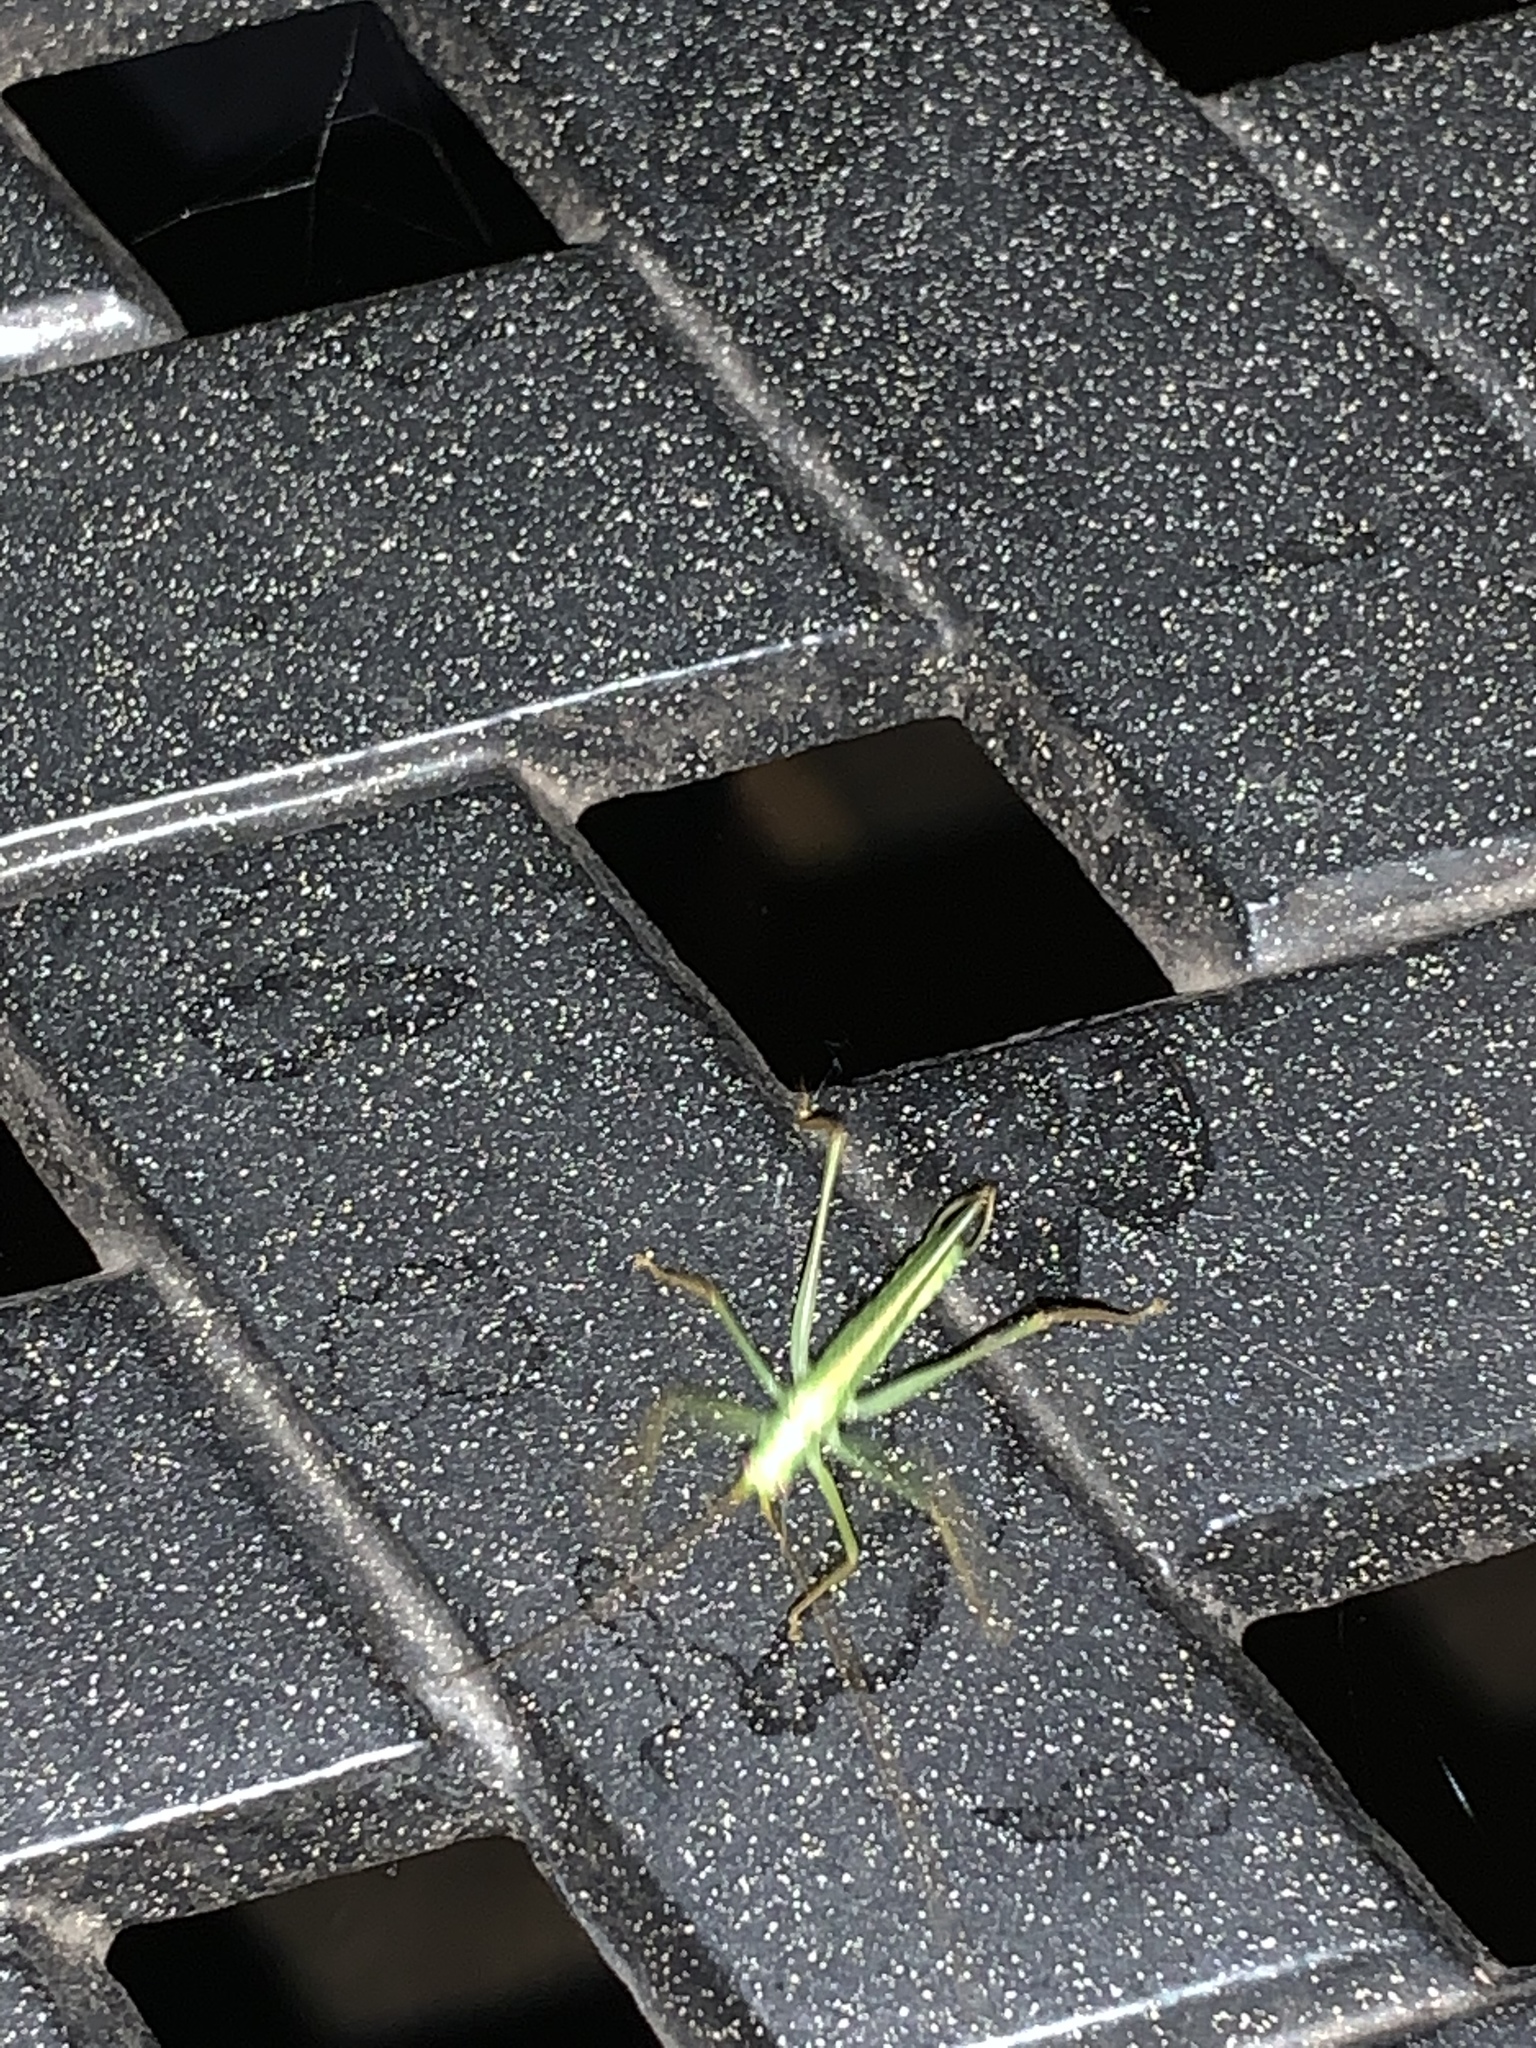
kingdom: Animalia
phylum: Arthropoda
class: Insecta
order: Orthoptera
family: Tettigoniidae
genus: Meconema
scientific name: Meconema thalassinum
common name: Oak bush-cricket
